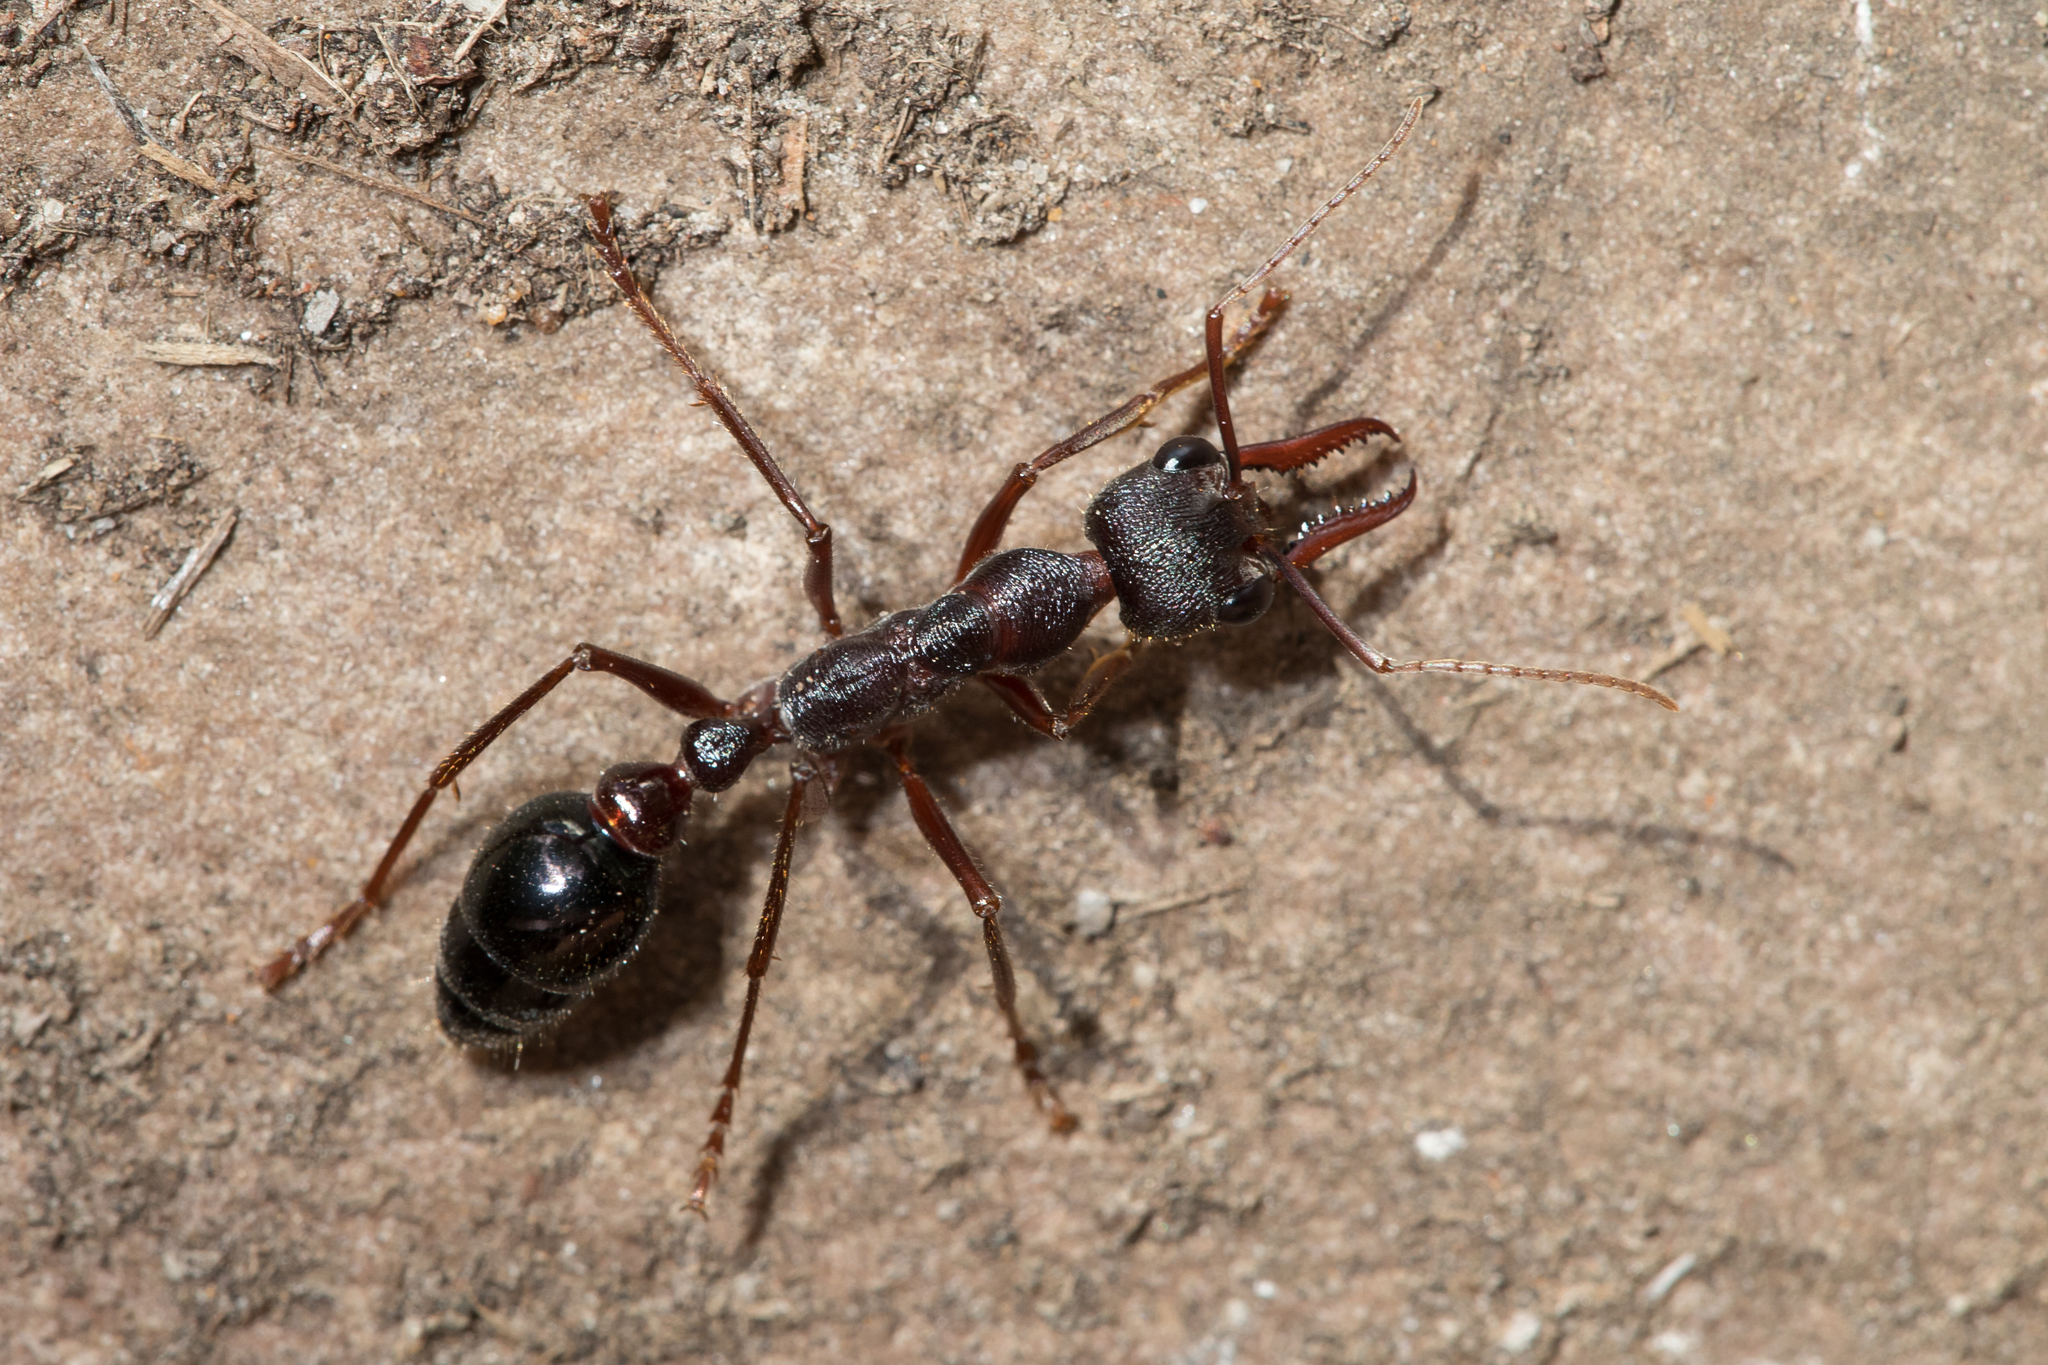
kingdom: Animalia
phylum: Arthropoda
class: Insecta
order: Hymenoptera
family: Formicidae
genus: Myrmecia
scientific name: Myrmecia forficata
